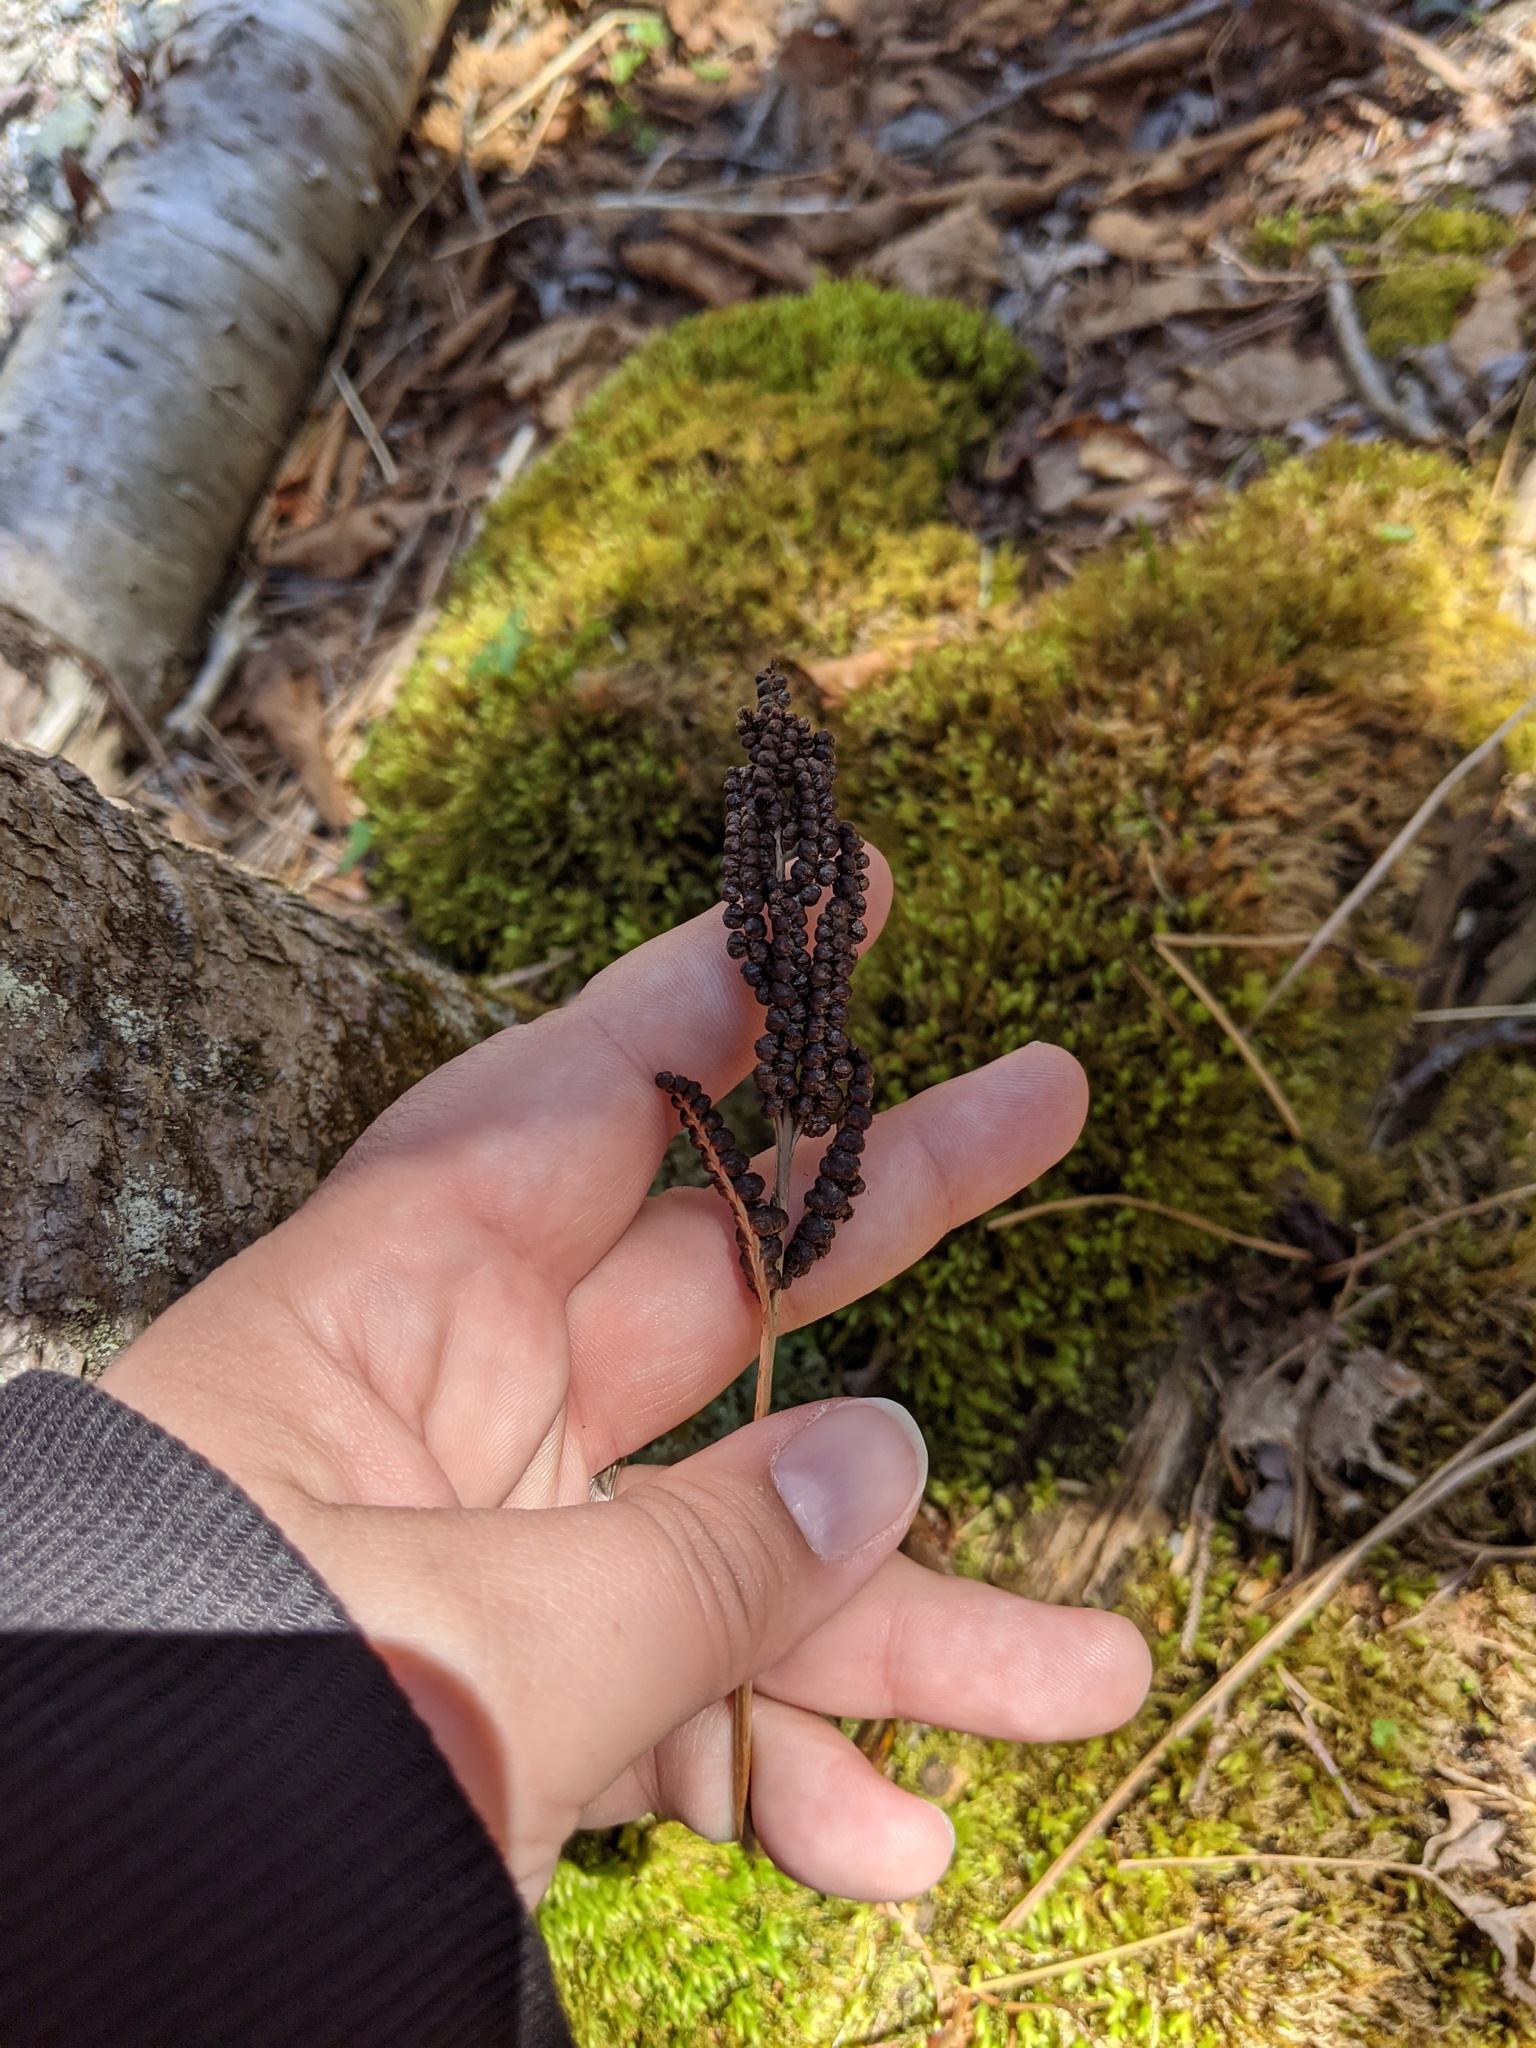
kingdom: Plantae
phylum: Tracheophyta
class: Polypodiopsida
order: Polypodiales
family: Onocleaceae
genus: Onoclea
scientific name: Onoclea sensibilis
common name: Sensitive fern
